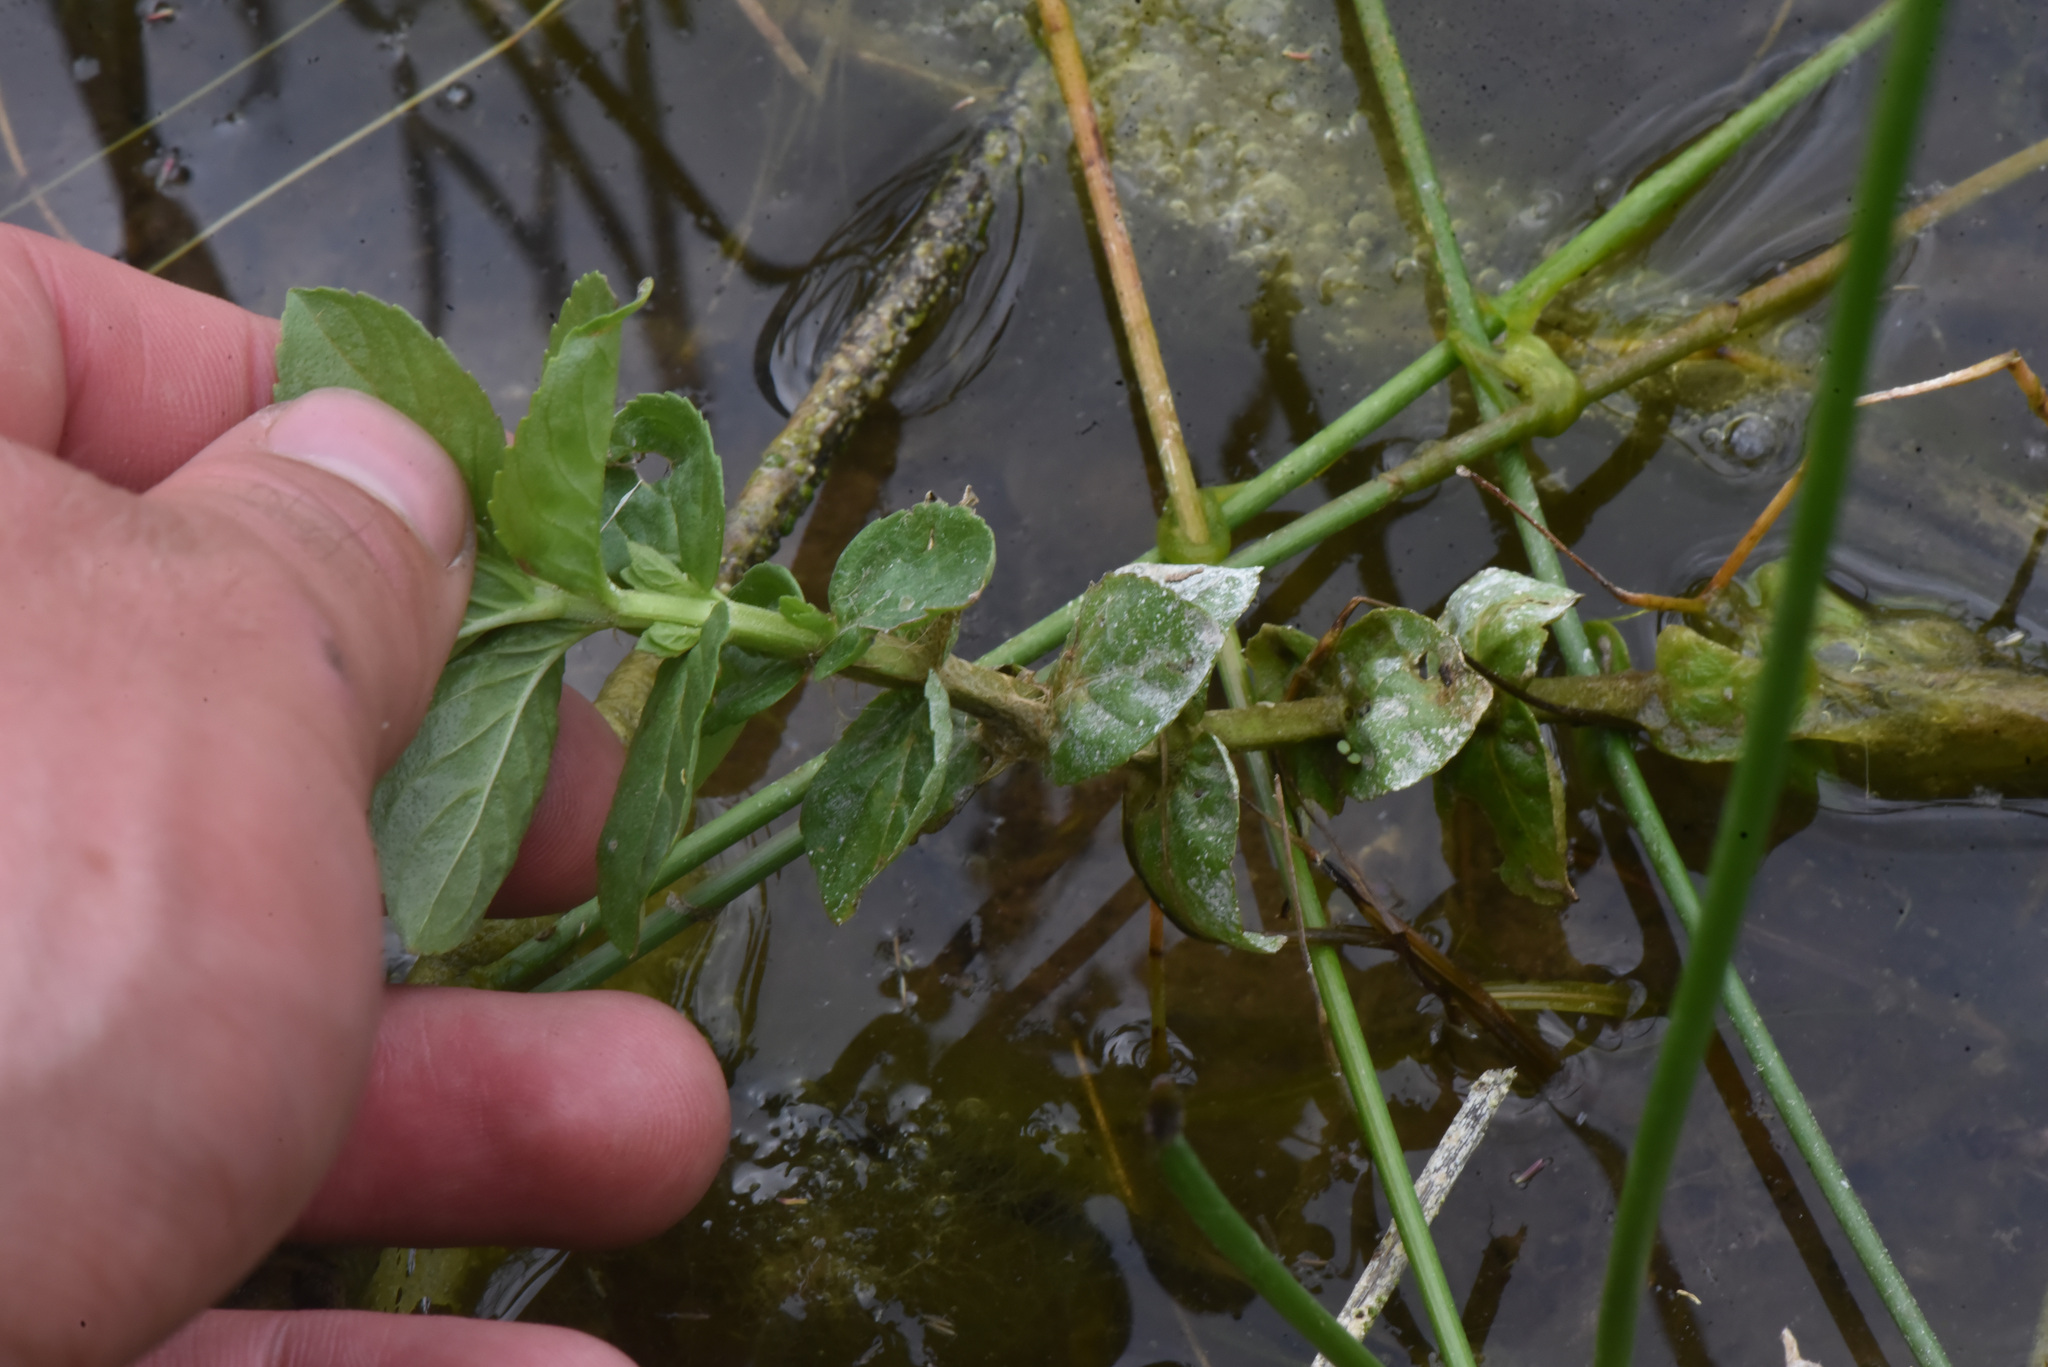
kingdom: Fungi
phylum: Ascomycota
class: Leotiomycetes
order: Helotiales
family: Erysiphaceae
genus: Golovinomyces
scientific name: Golovinomyces monardae
